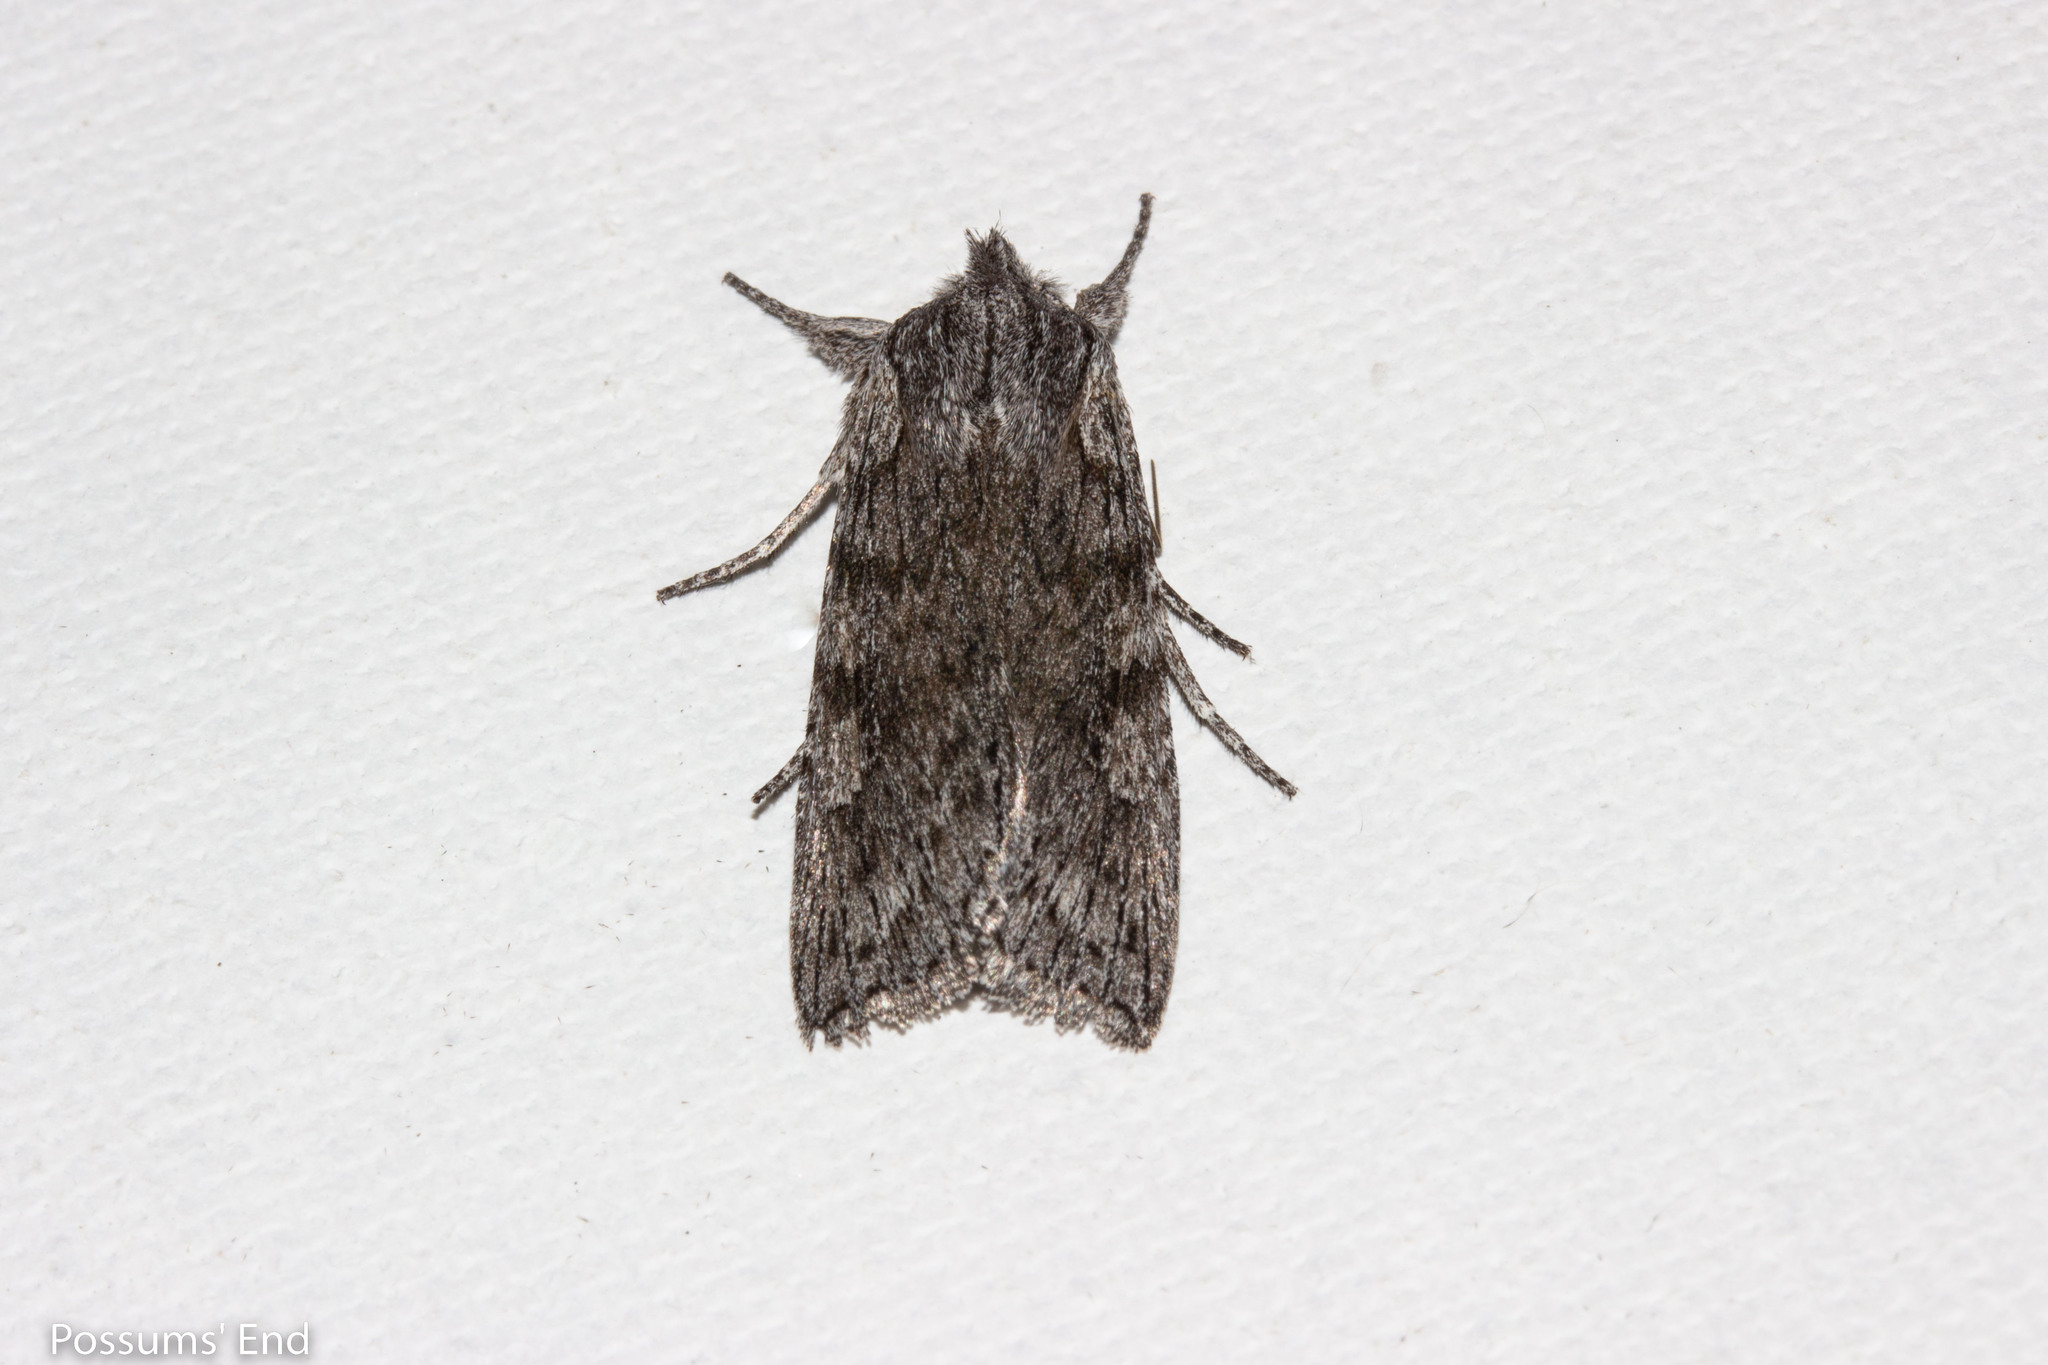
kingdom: Animalia
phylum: Arthropoda
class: Insecta
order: Lepidoptera
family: Noctuidae
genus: Physetica
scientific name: Physetica phricias
